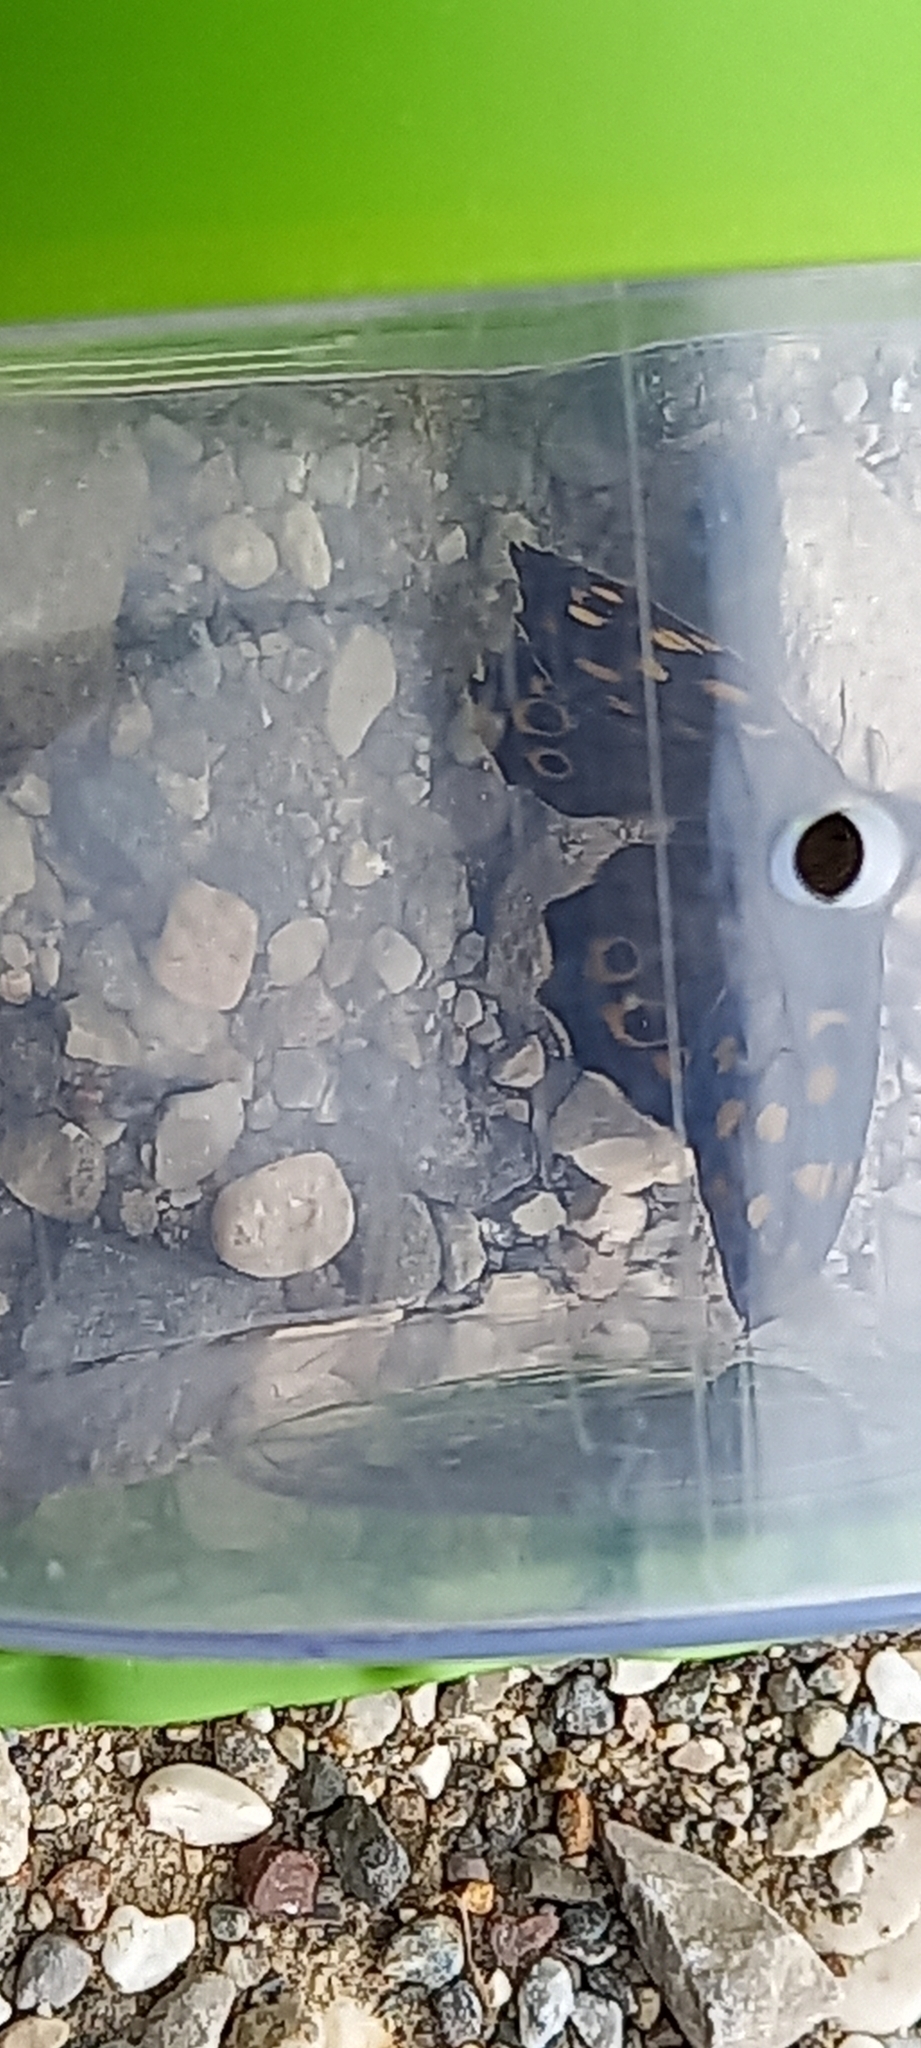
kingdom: Animalia
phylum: Arthropoda
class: Insecta
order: Lepidoptera
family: Nymphalidae
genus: Pararge
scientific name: Pararge aegeria
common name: Speckled wood
